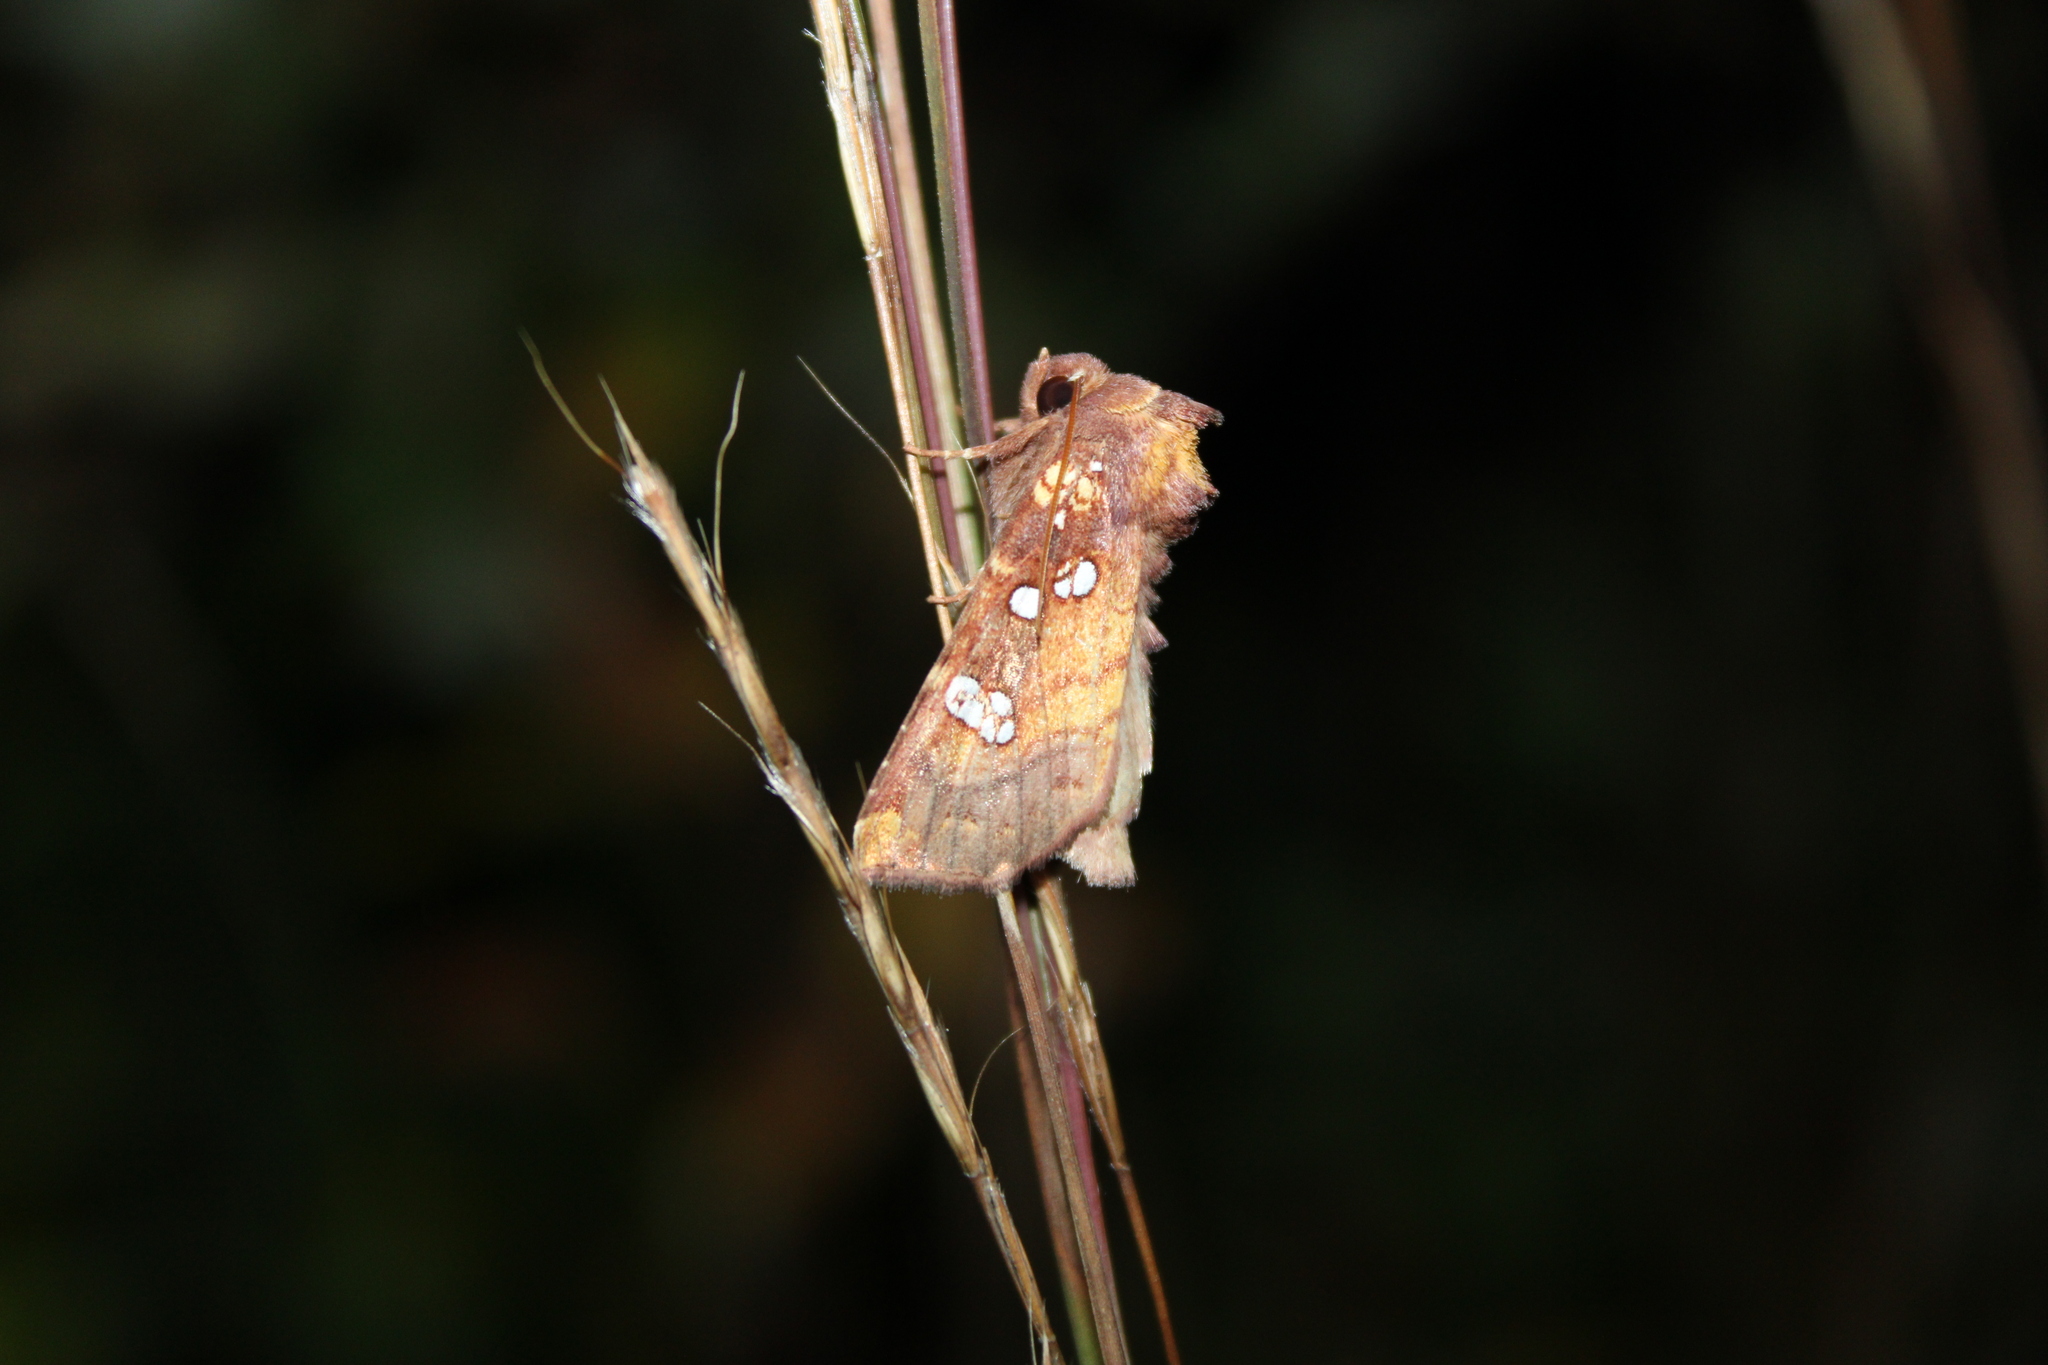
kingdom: Animalia
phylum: Arthropoda
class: Insecta
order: Lepidoptera
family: Noctuidae
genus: Papaipema
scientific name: Papaipema baptisiae
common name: Wild indigo borer moth
